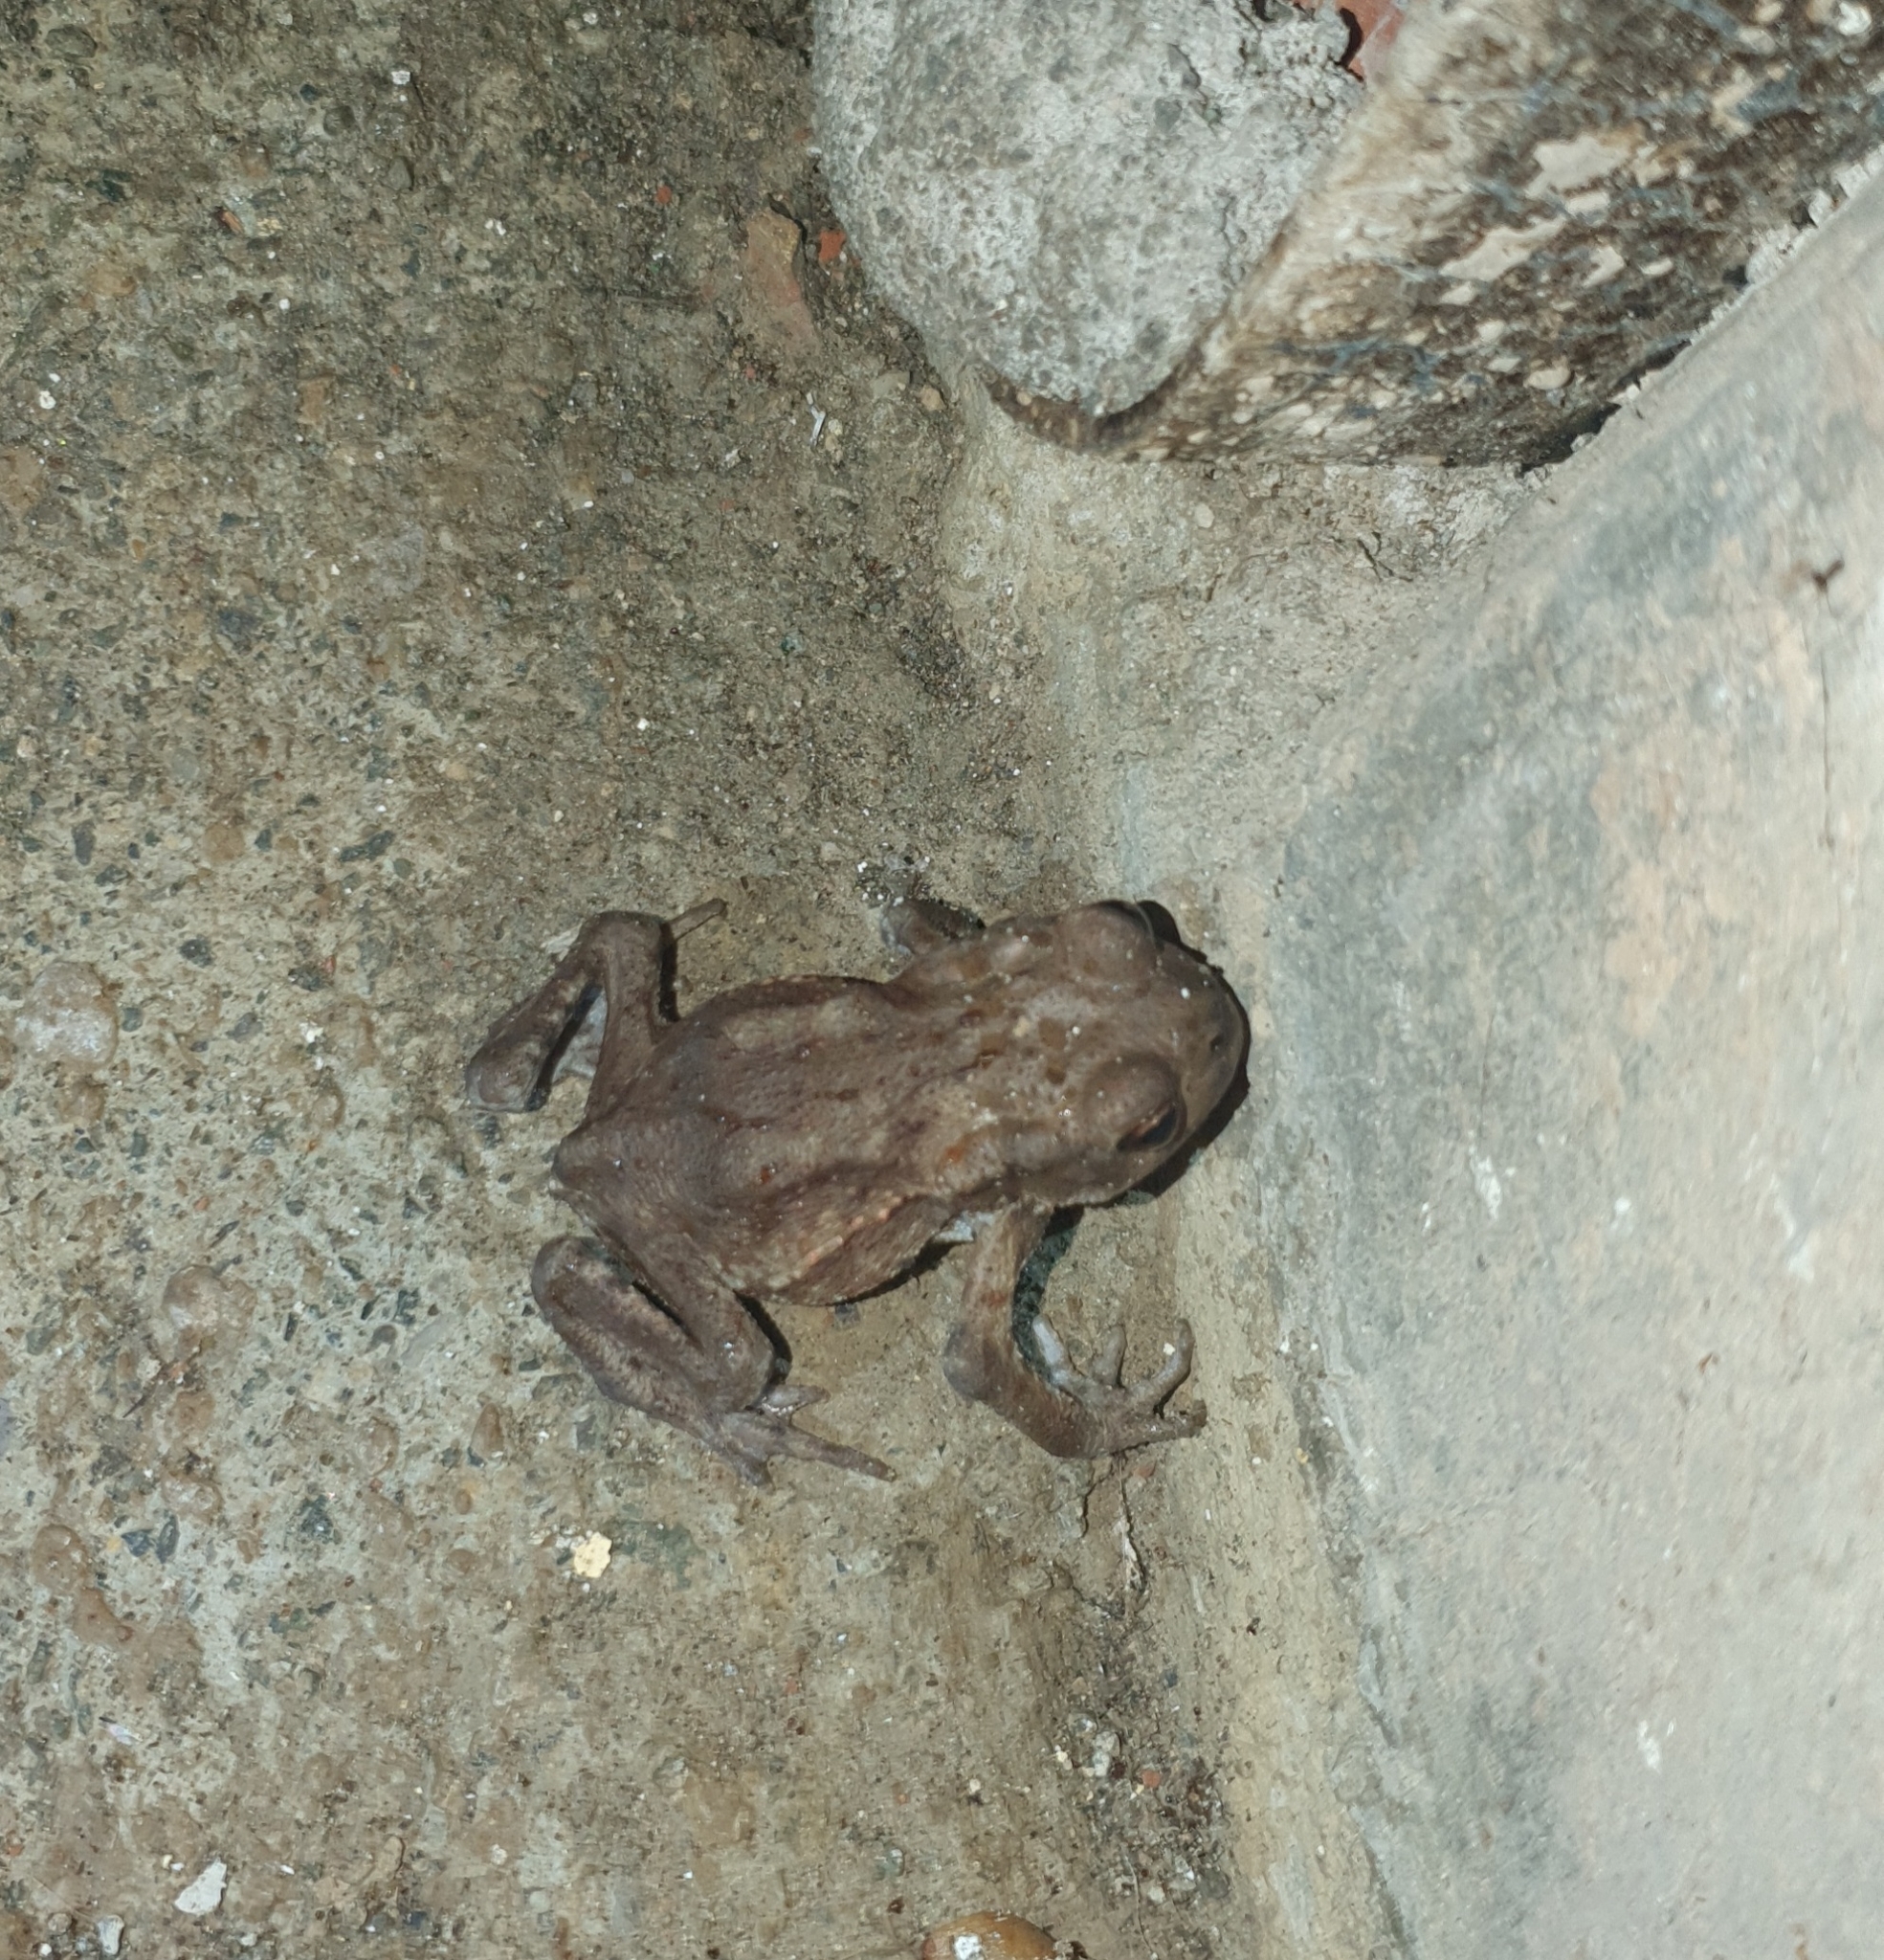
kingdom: Animalia
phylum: Chordata
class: Amphibia
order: Anura
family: Bufonidae
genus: Bufo
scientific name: Bufo bufo
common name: Common toad
